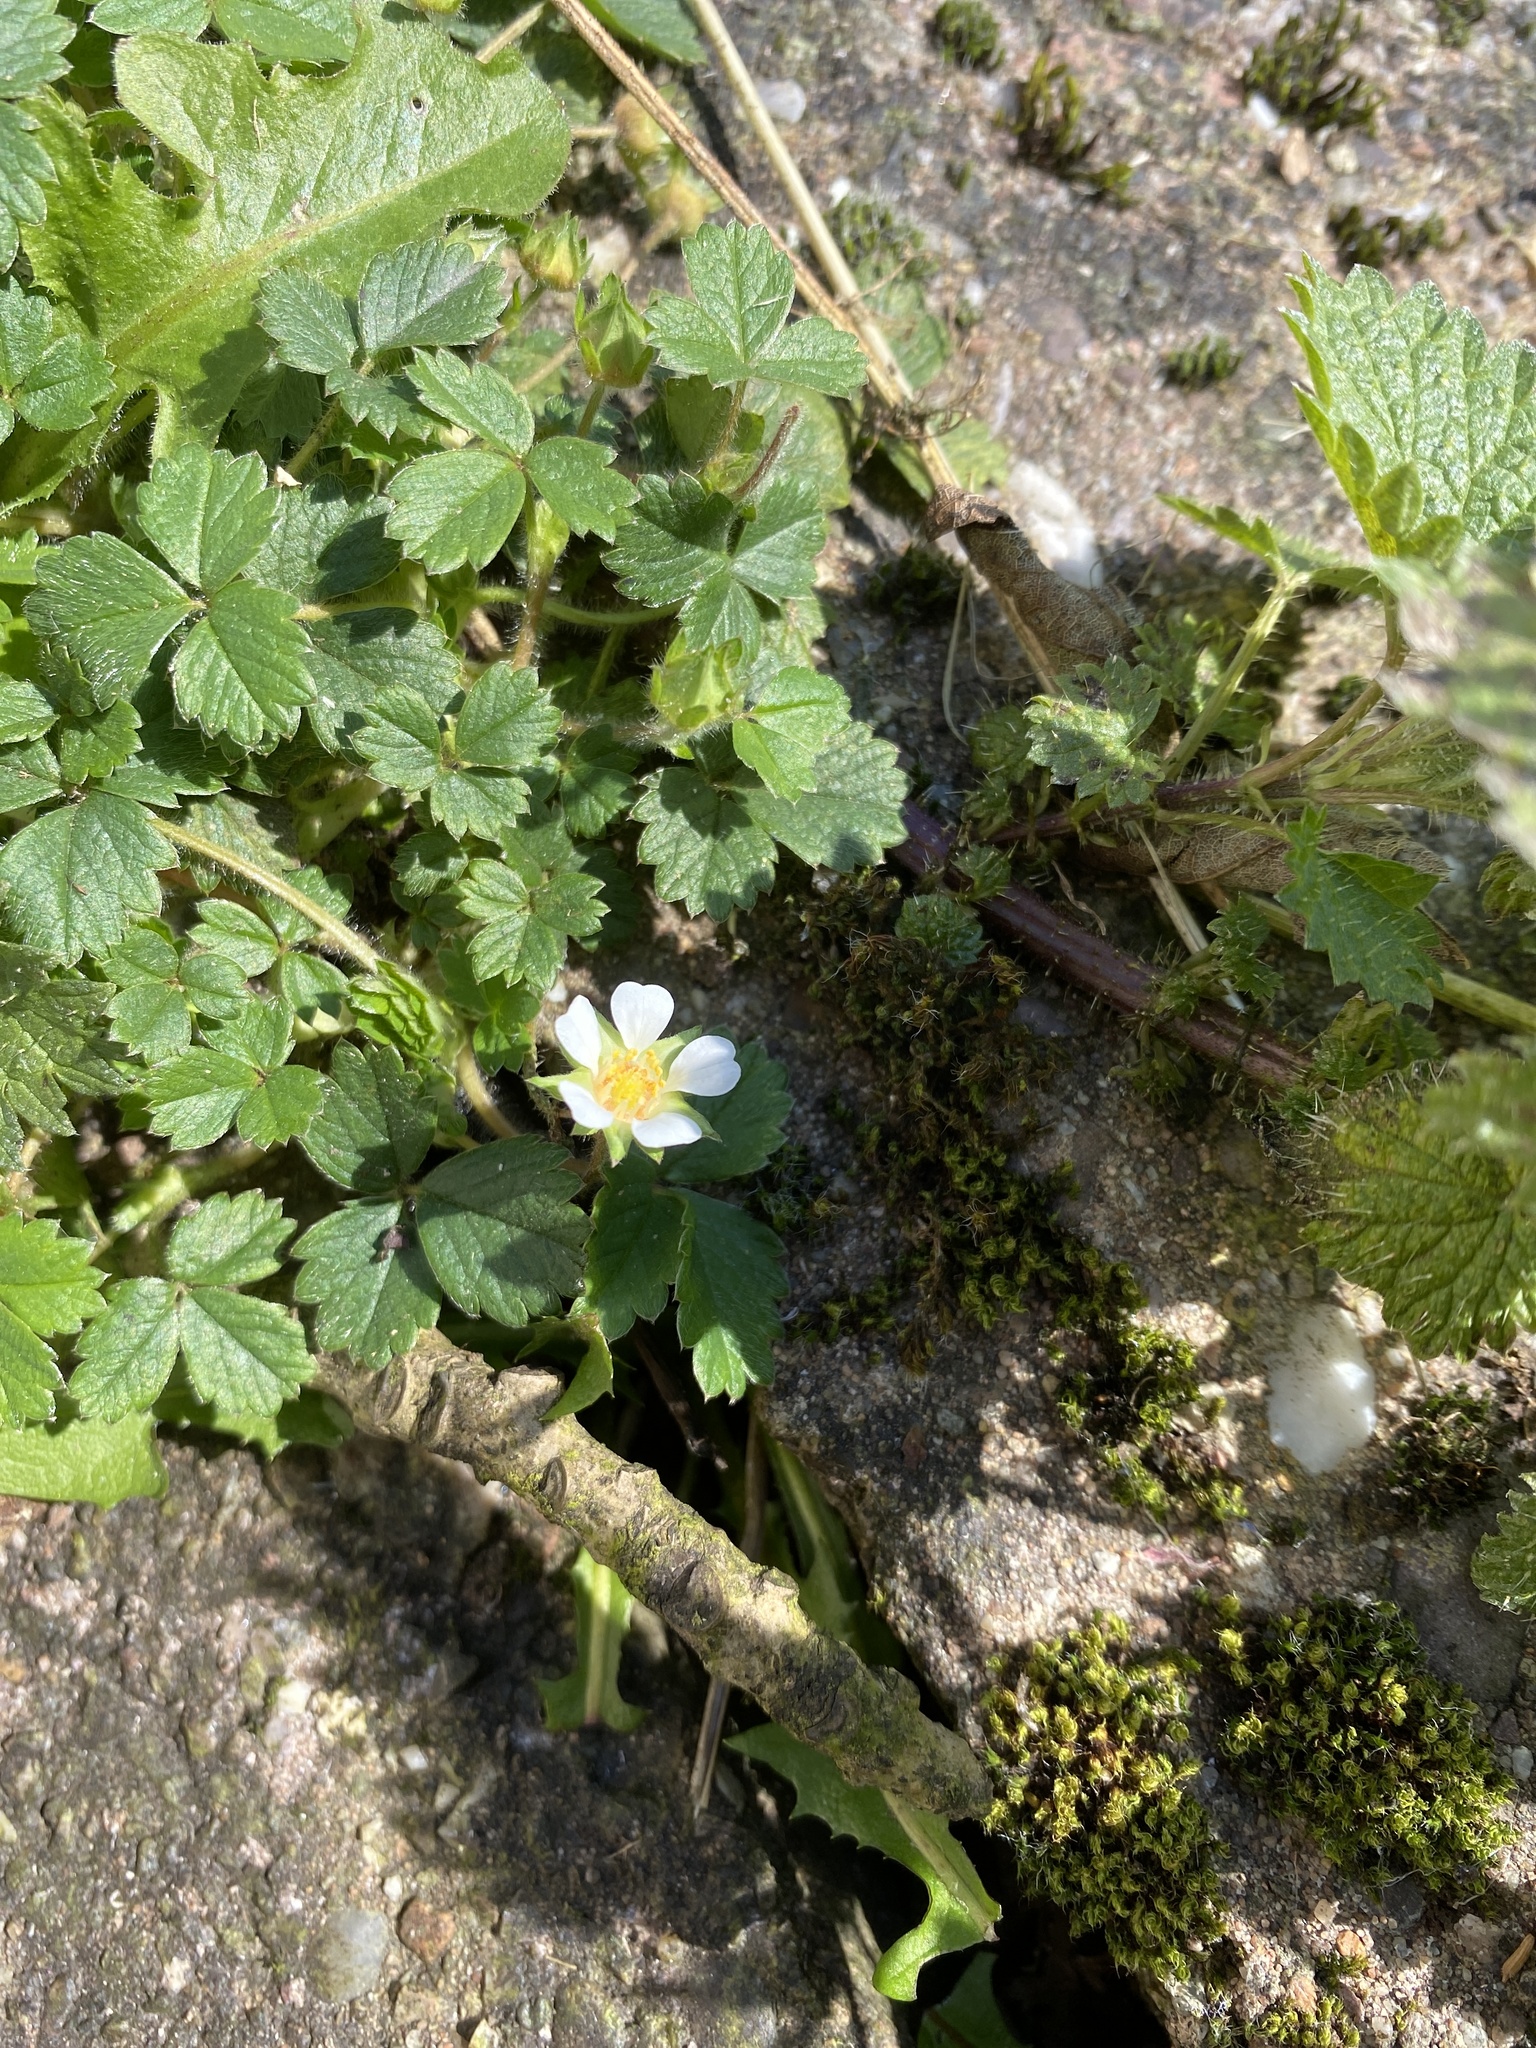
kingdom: Plantae
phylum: Tracheophyta
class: Magnoliopsida
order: Rosales
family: Rosaceae
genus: Potentilla
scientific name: Potentilla sterilis
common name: Barren strawberry
